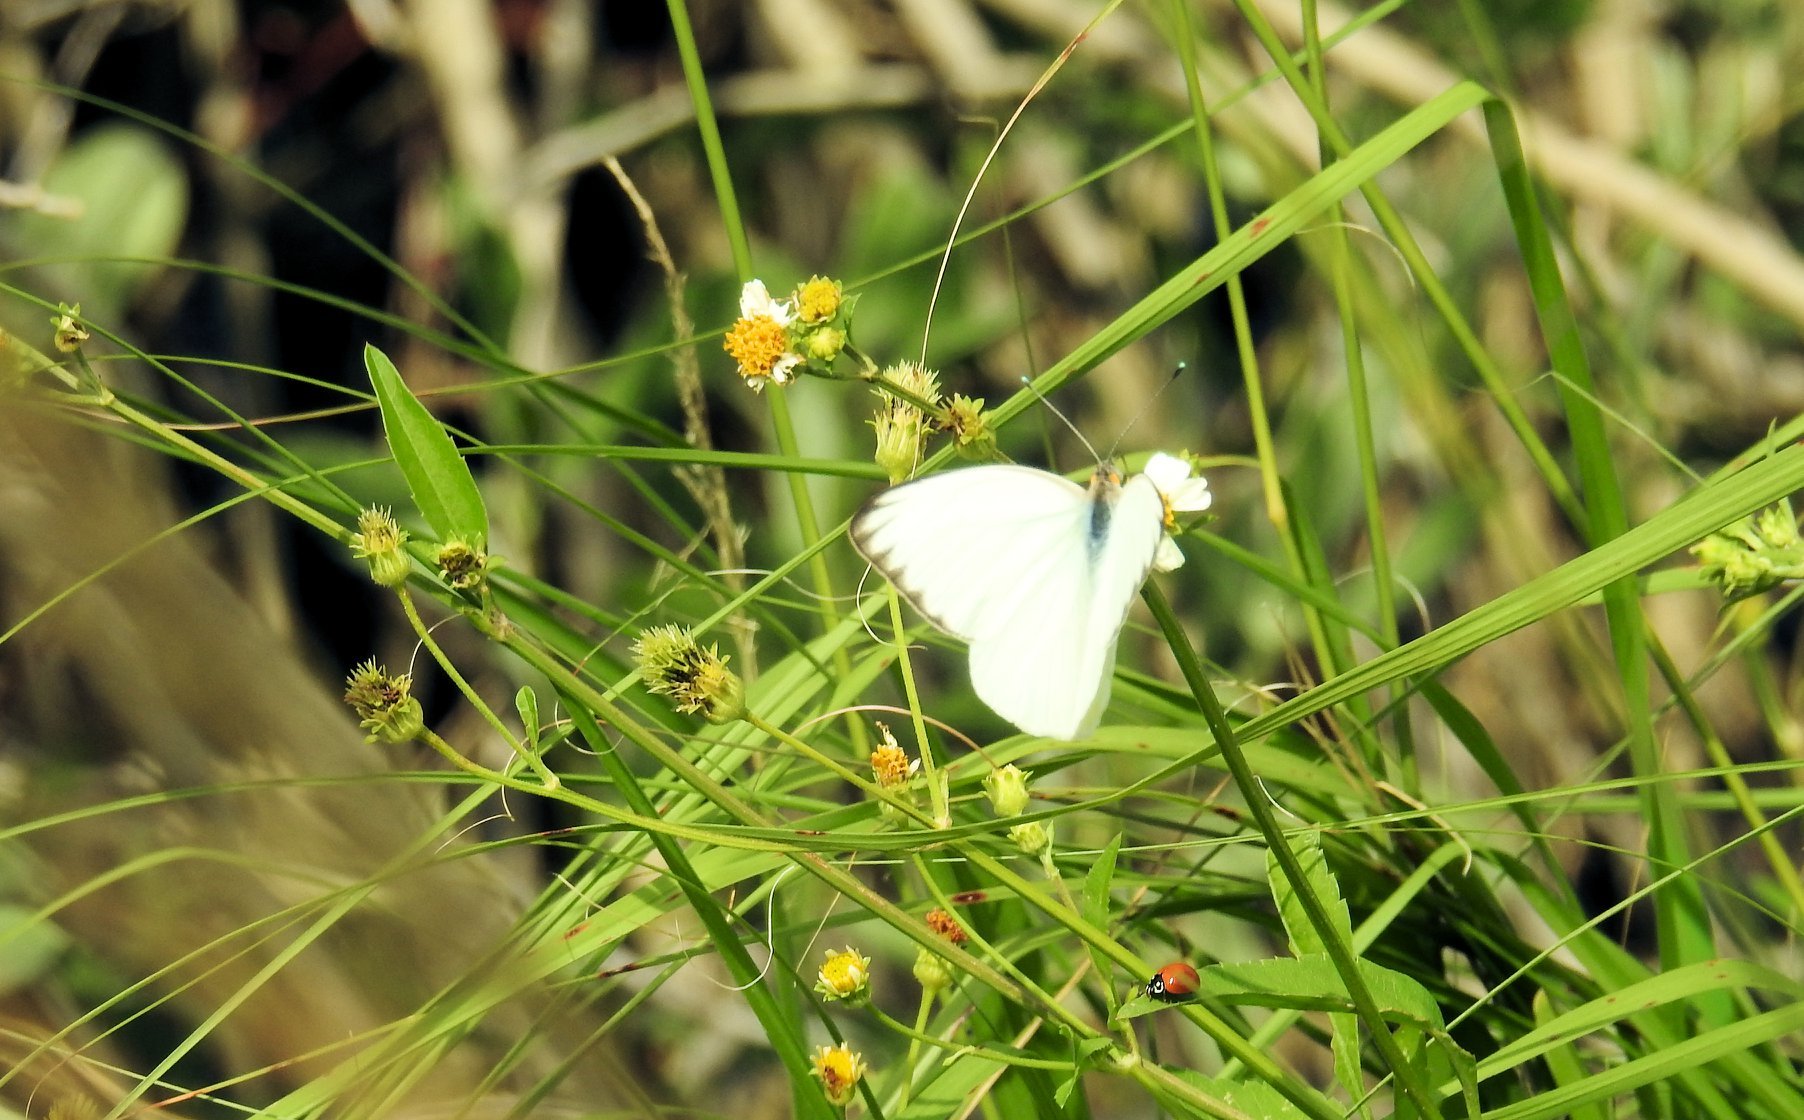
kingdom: Animalia
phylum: Arthropoda
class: Insecta
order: Lepidoptera
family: Pieridae
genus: Ascia
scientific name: Ascia monuste
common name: Great southern white
